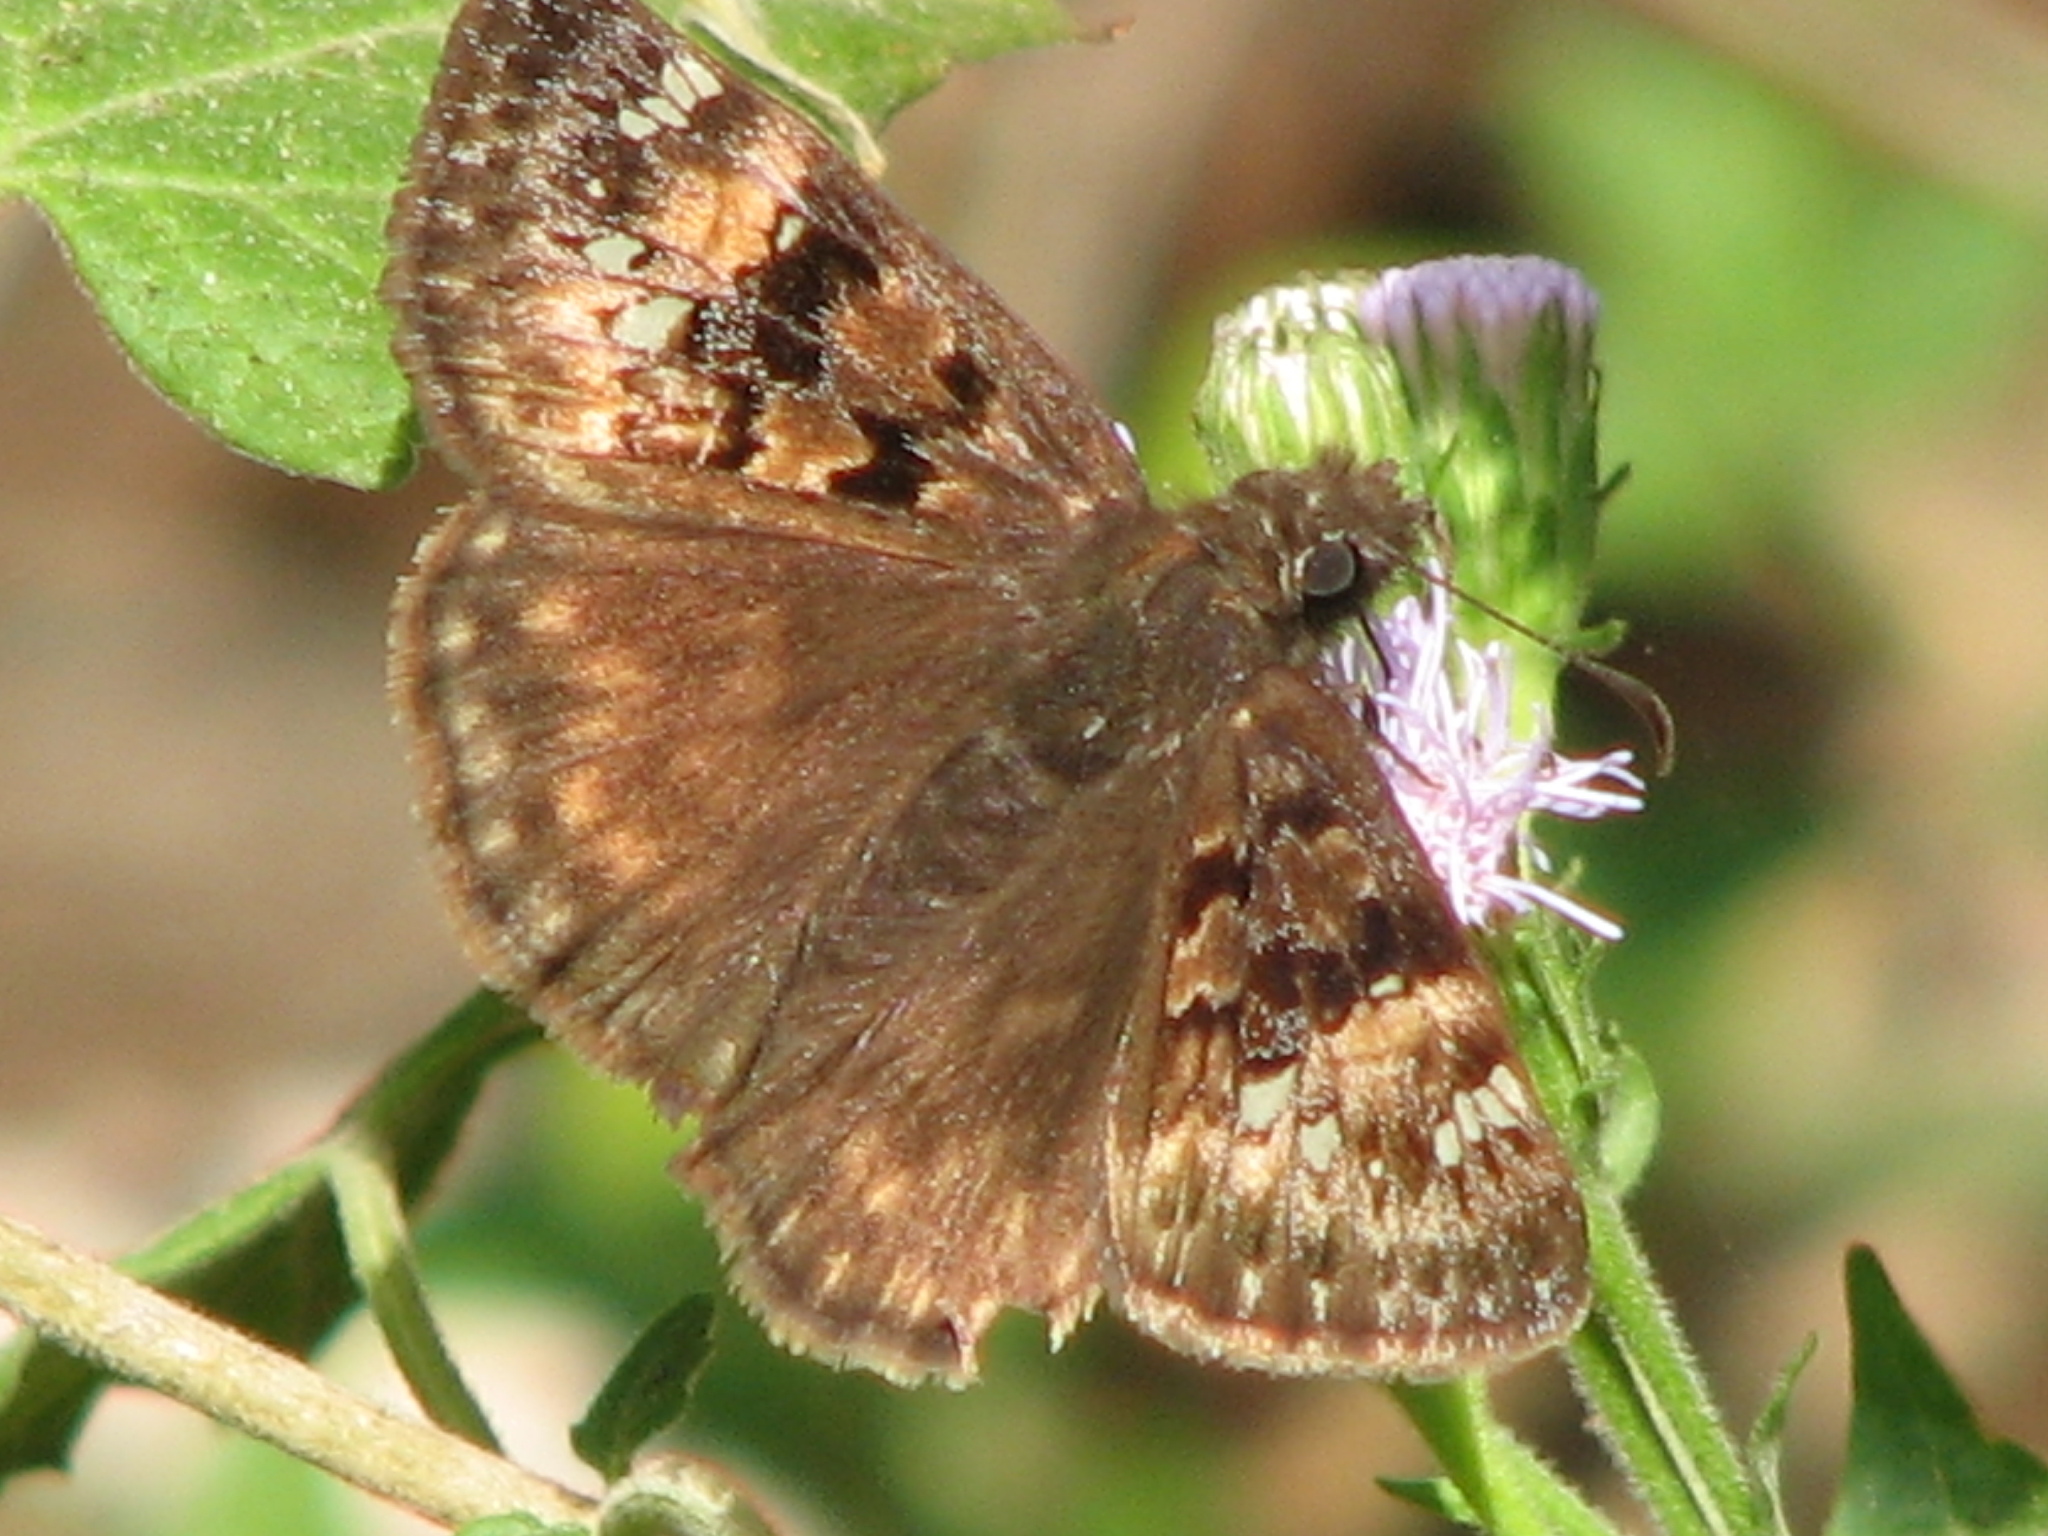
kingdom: Animalia
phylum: Arthropoda
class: Insecta
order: Lepidoptera
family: Hesperiidae
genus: Erynnis
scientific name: Erynnis horatius
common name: Horace's duskywing
